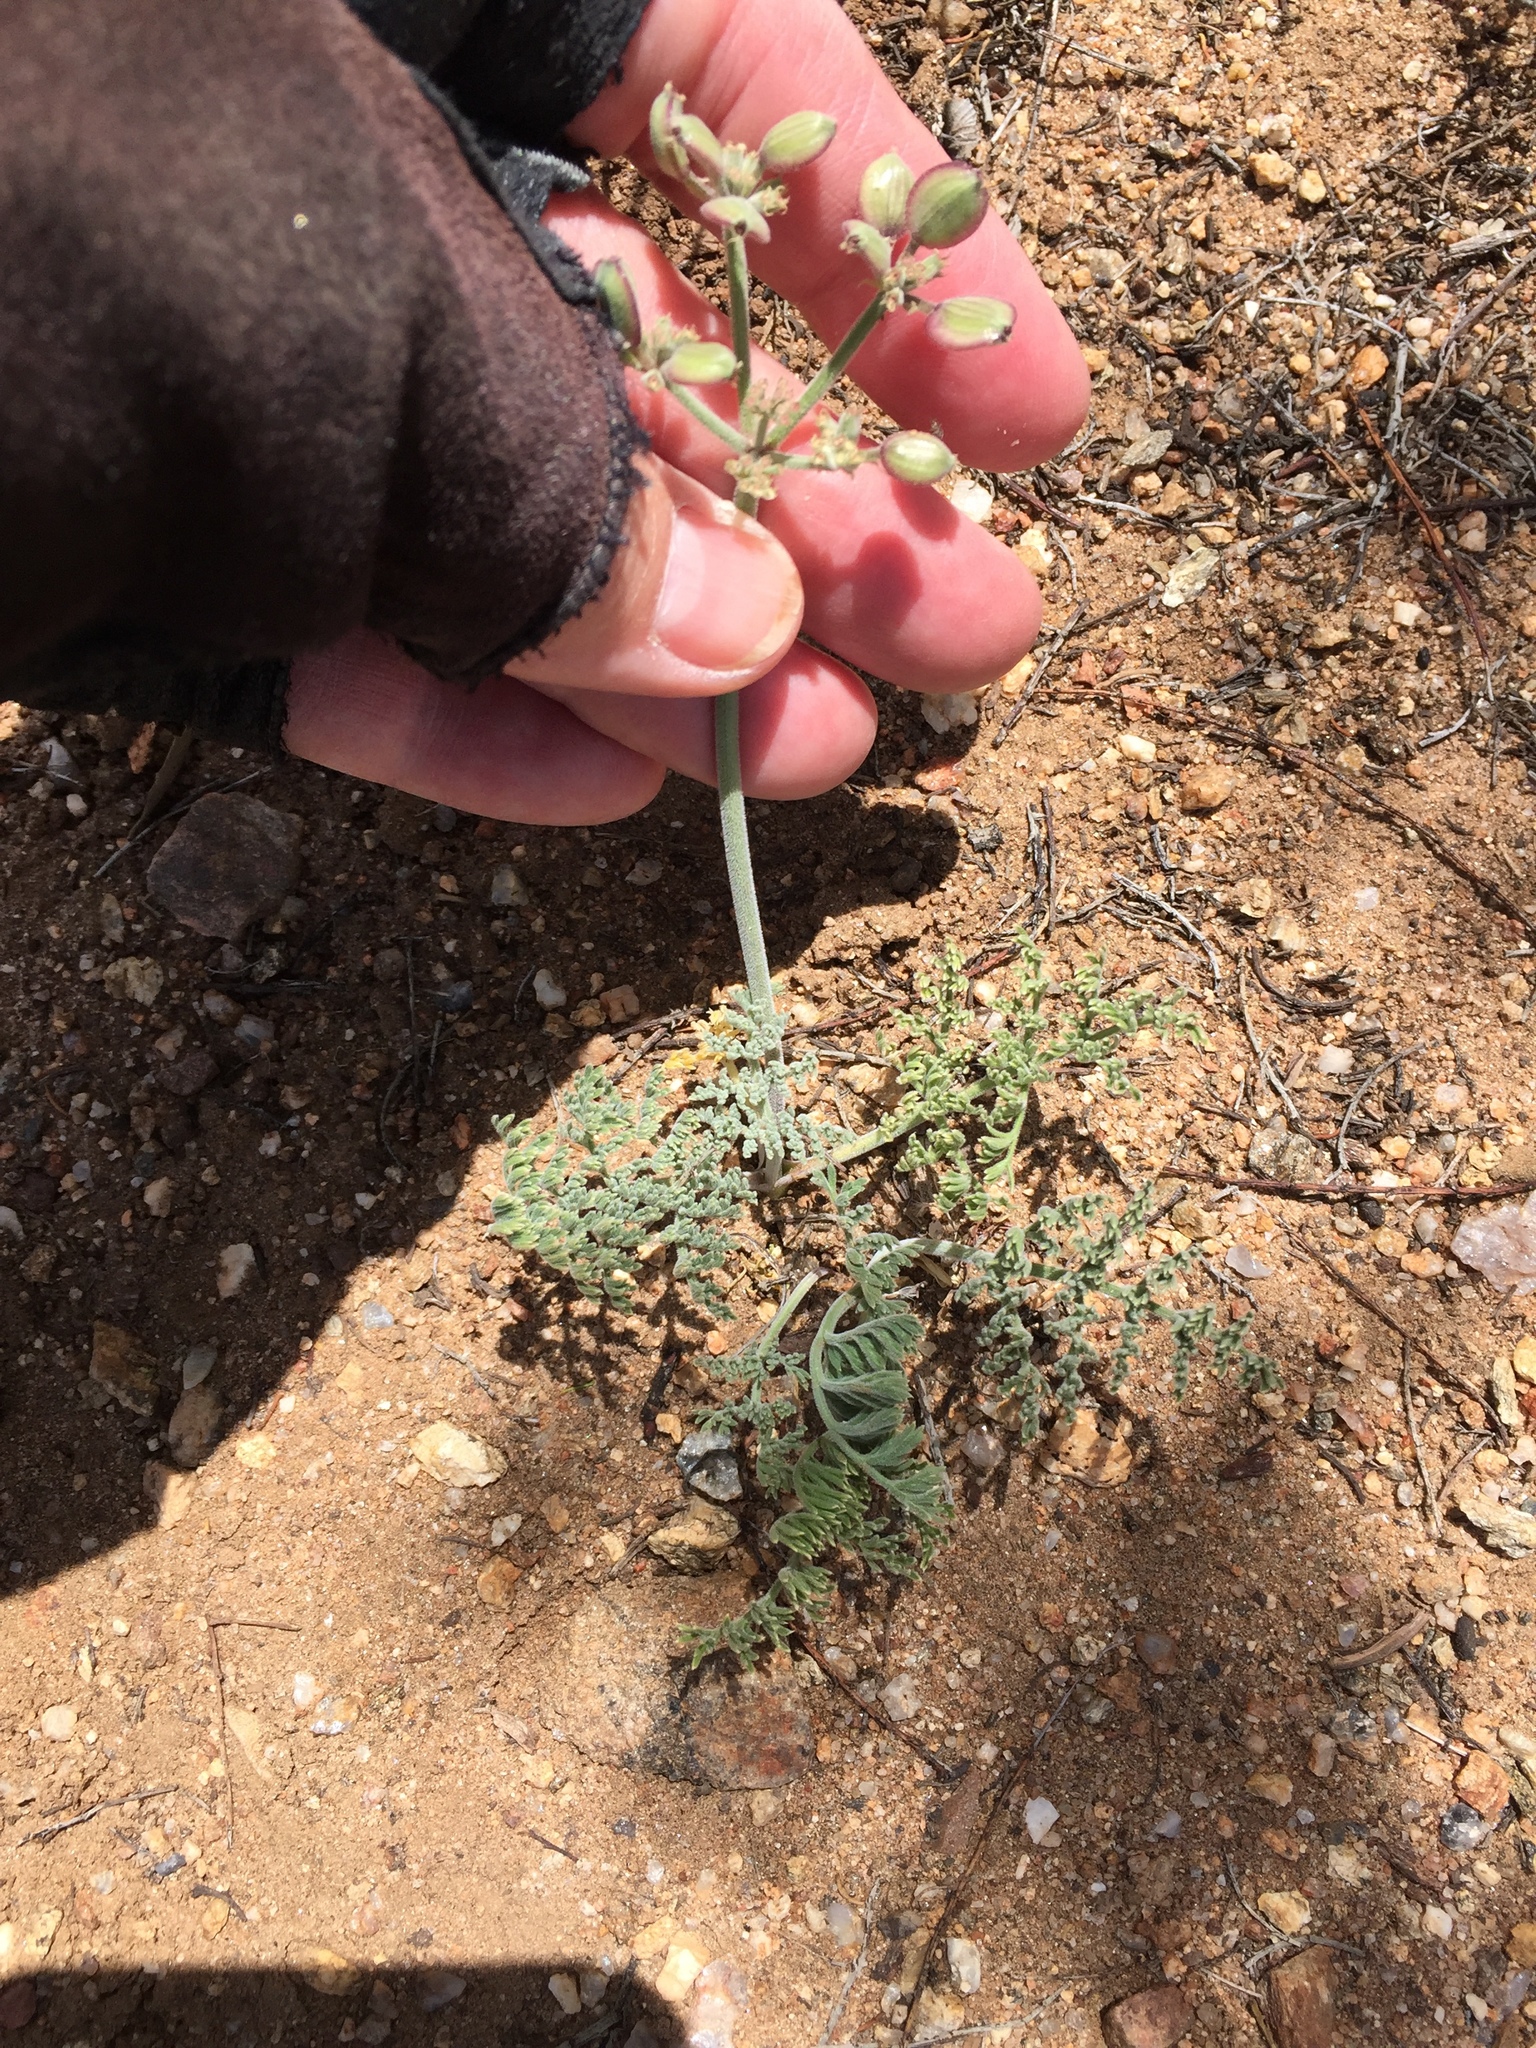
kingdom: Plantae
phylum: Tracheophyta
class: Magnoliopsida
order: Apiales
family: Apiaceae
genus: Lomatium
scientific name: Lomatium mohavense
